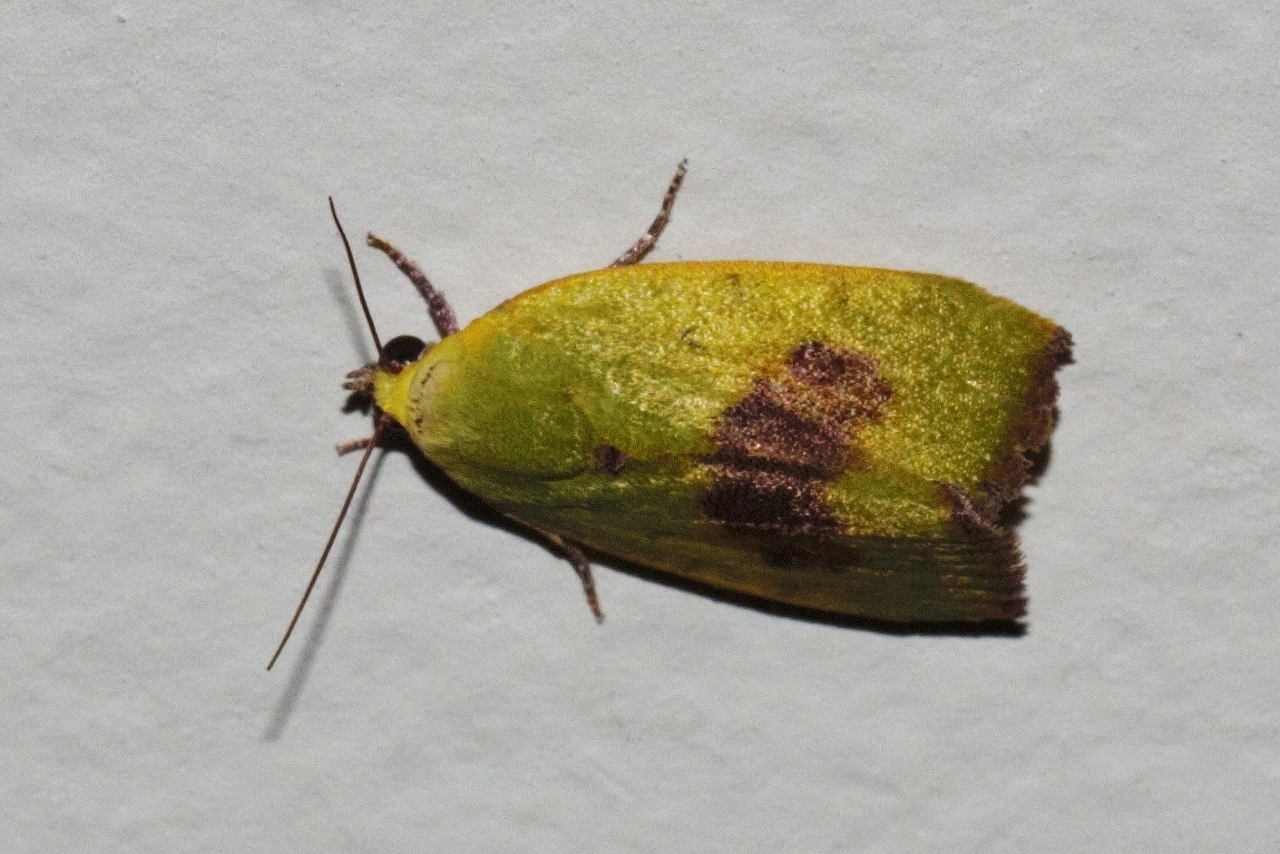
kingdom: Animalia
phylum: Arthropoda
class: Insecta
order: Lepidoptera
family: Nolidae
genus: Earias
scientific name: Earias biplaga
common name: Spiny bollworm
